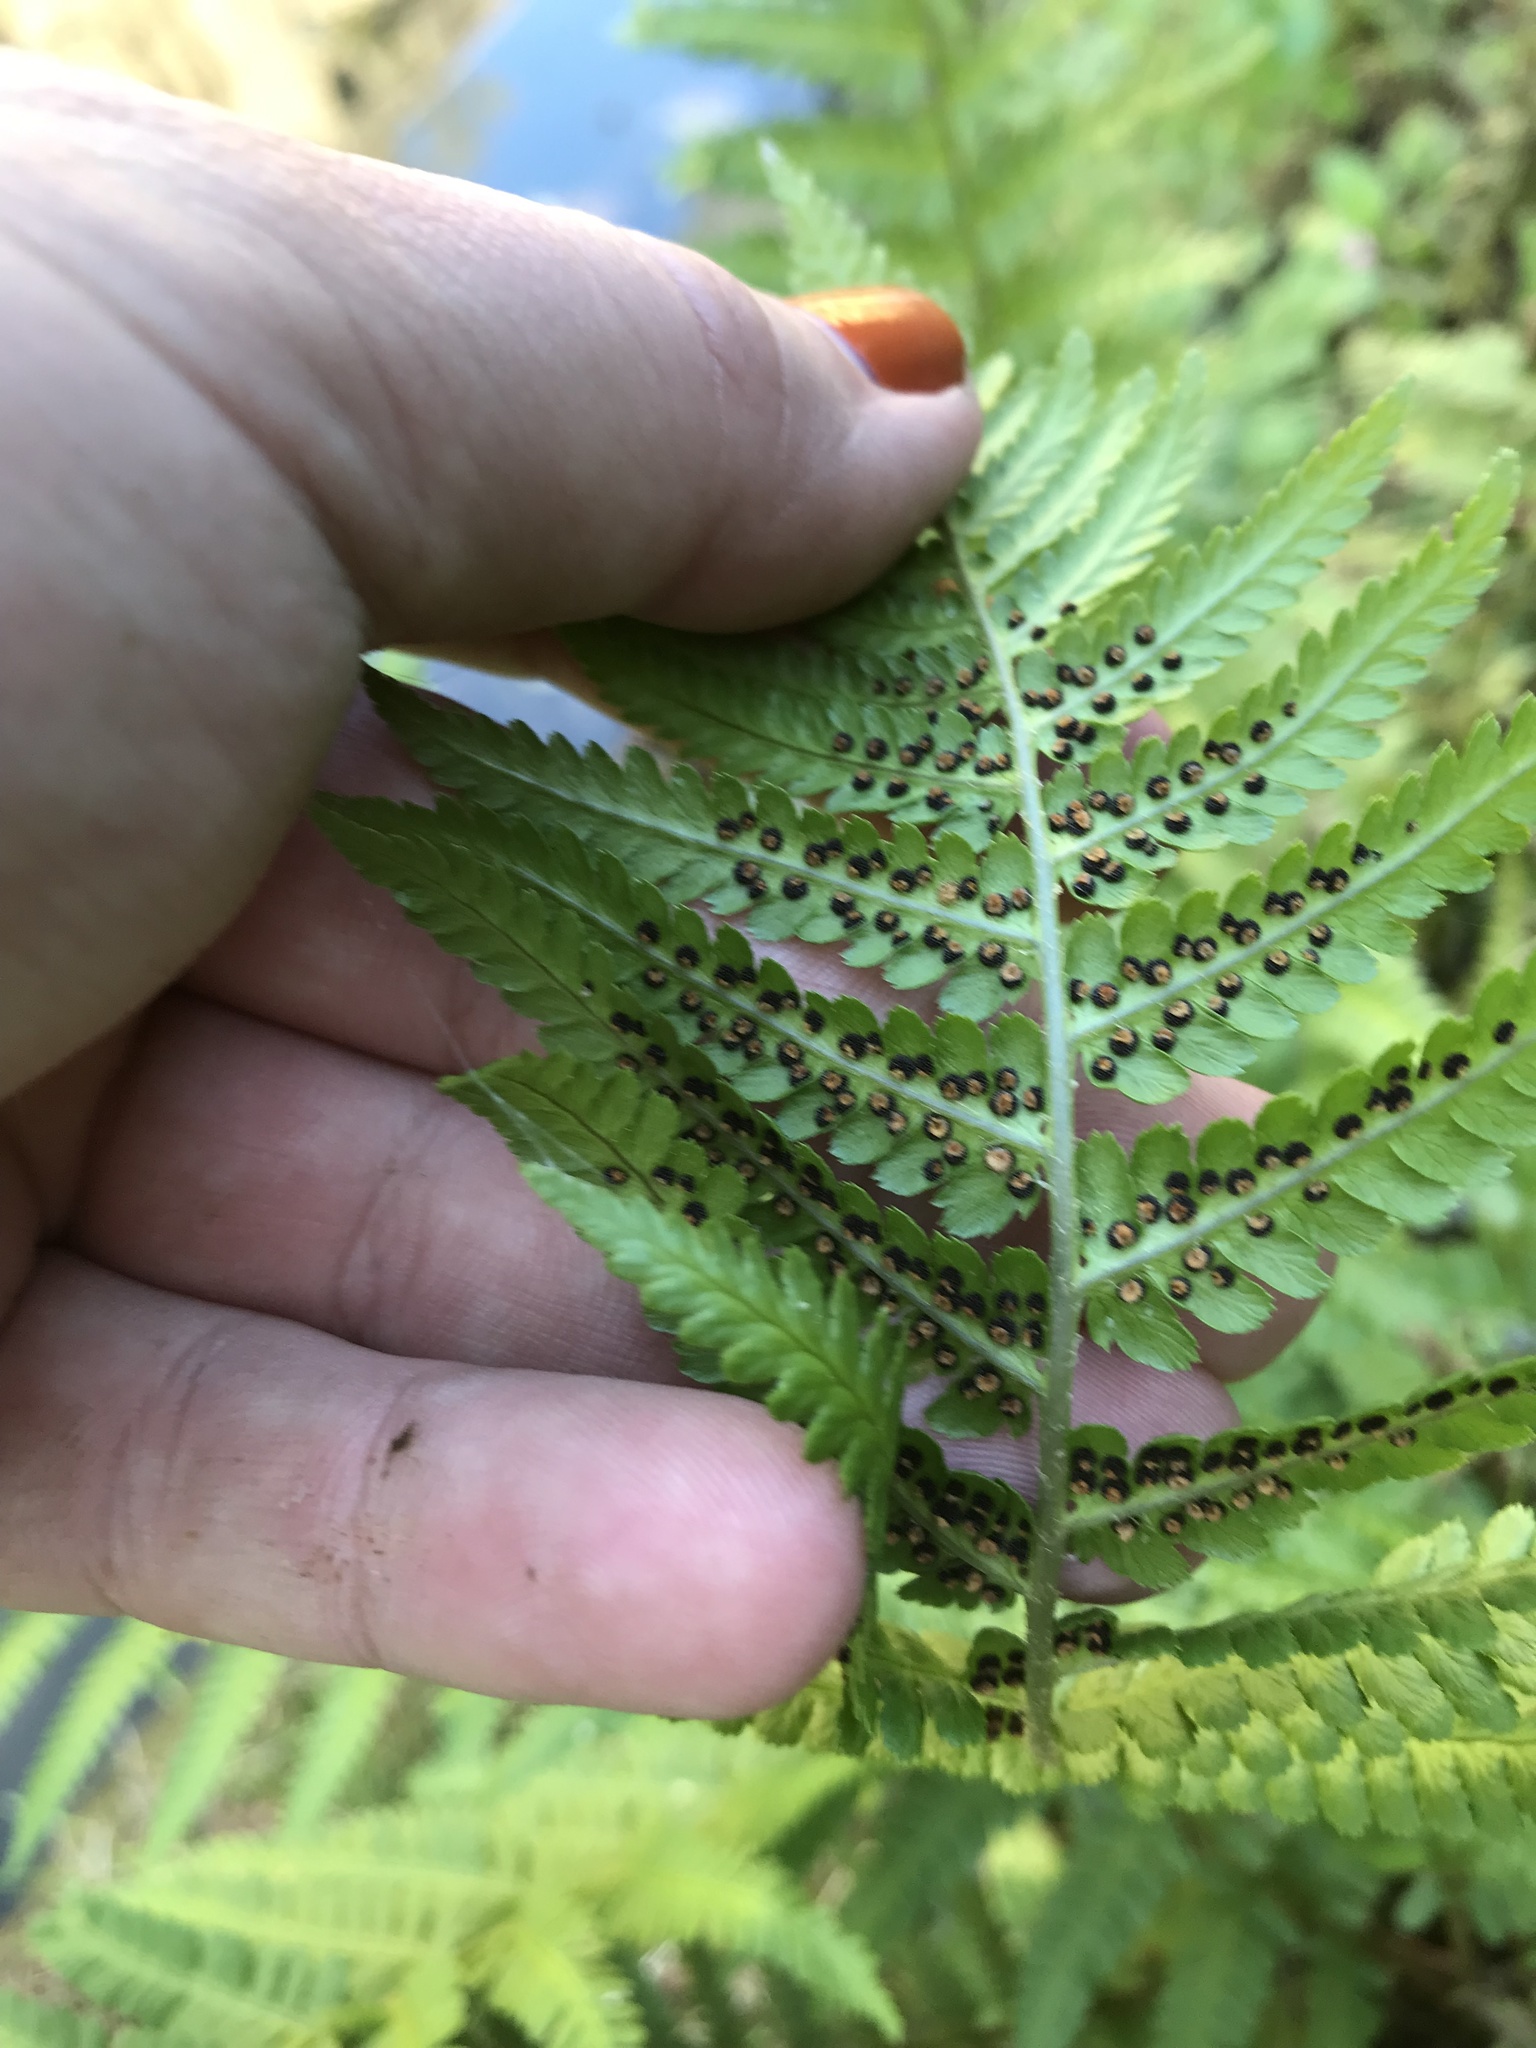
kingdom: Plantae
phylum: Tracheophyta
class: Polypodiopsida
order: Polypodiales
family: Dryopteridaceae
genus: Dryopteris
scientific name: Dryopteris filix-mas
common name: Male fern
